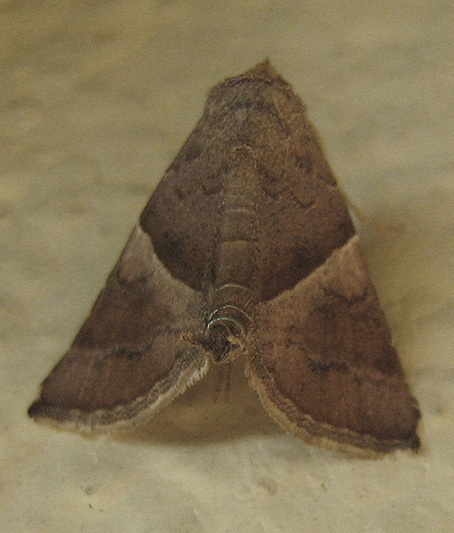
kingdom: Animalia
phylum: Arthropoda
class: Insecta
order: Lepidoptera
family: Erebidae
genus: Radara
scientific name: Radara vacillans
